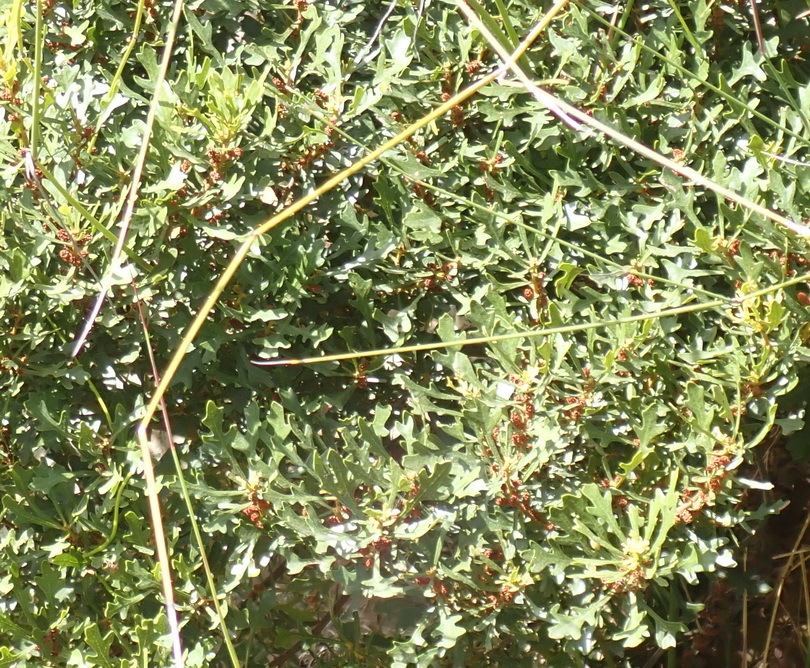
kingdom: Plantae
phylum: Tracheophyta
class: Magnoliopsida
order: Fagales
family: Myricaceae
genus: Morella
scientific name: Morella quercifolia
